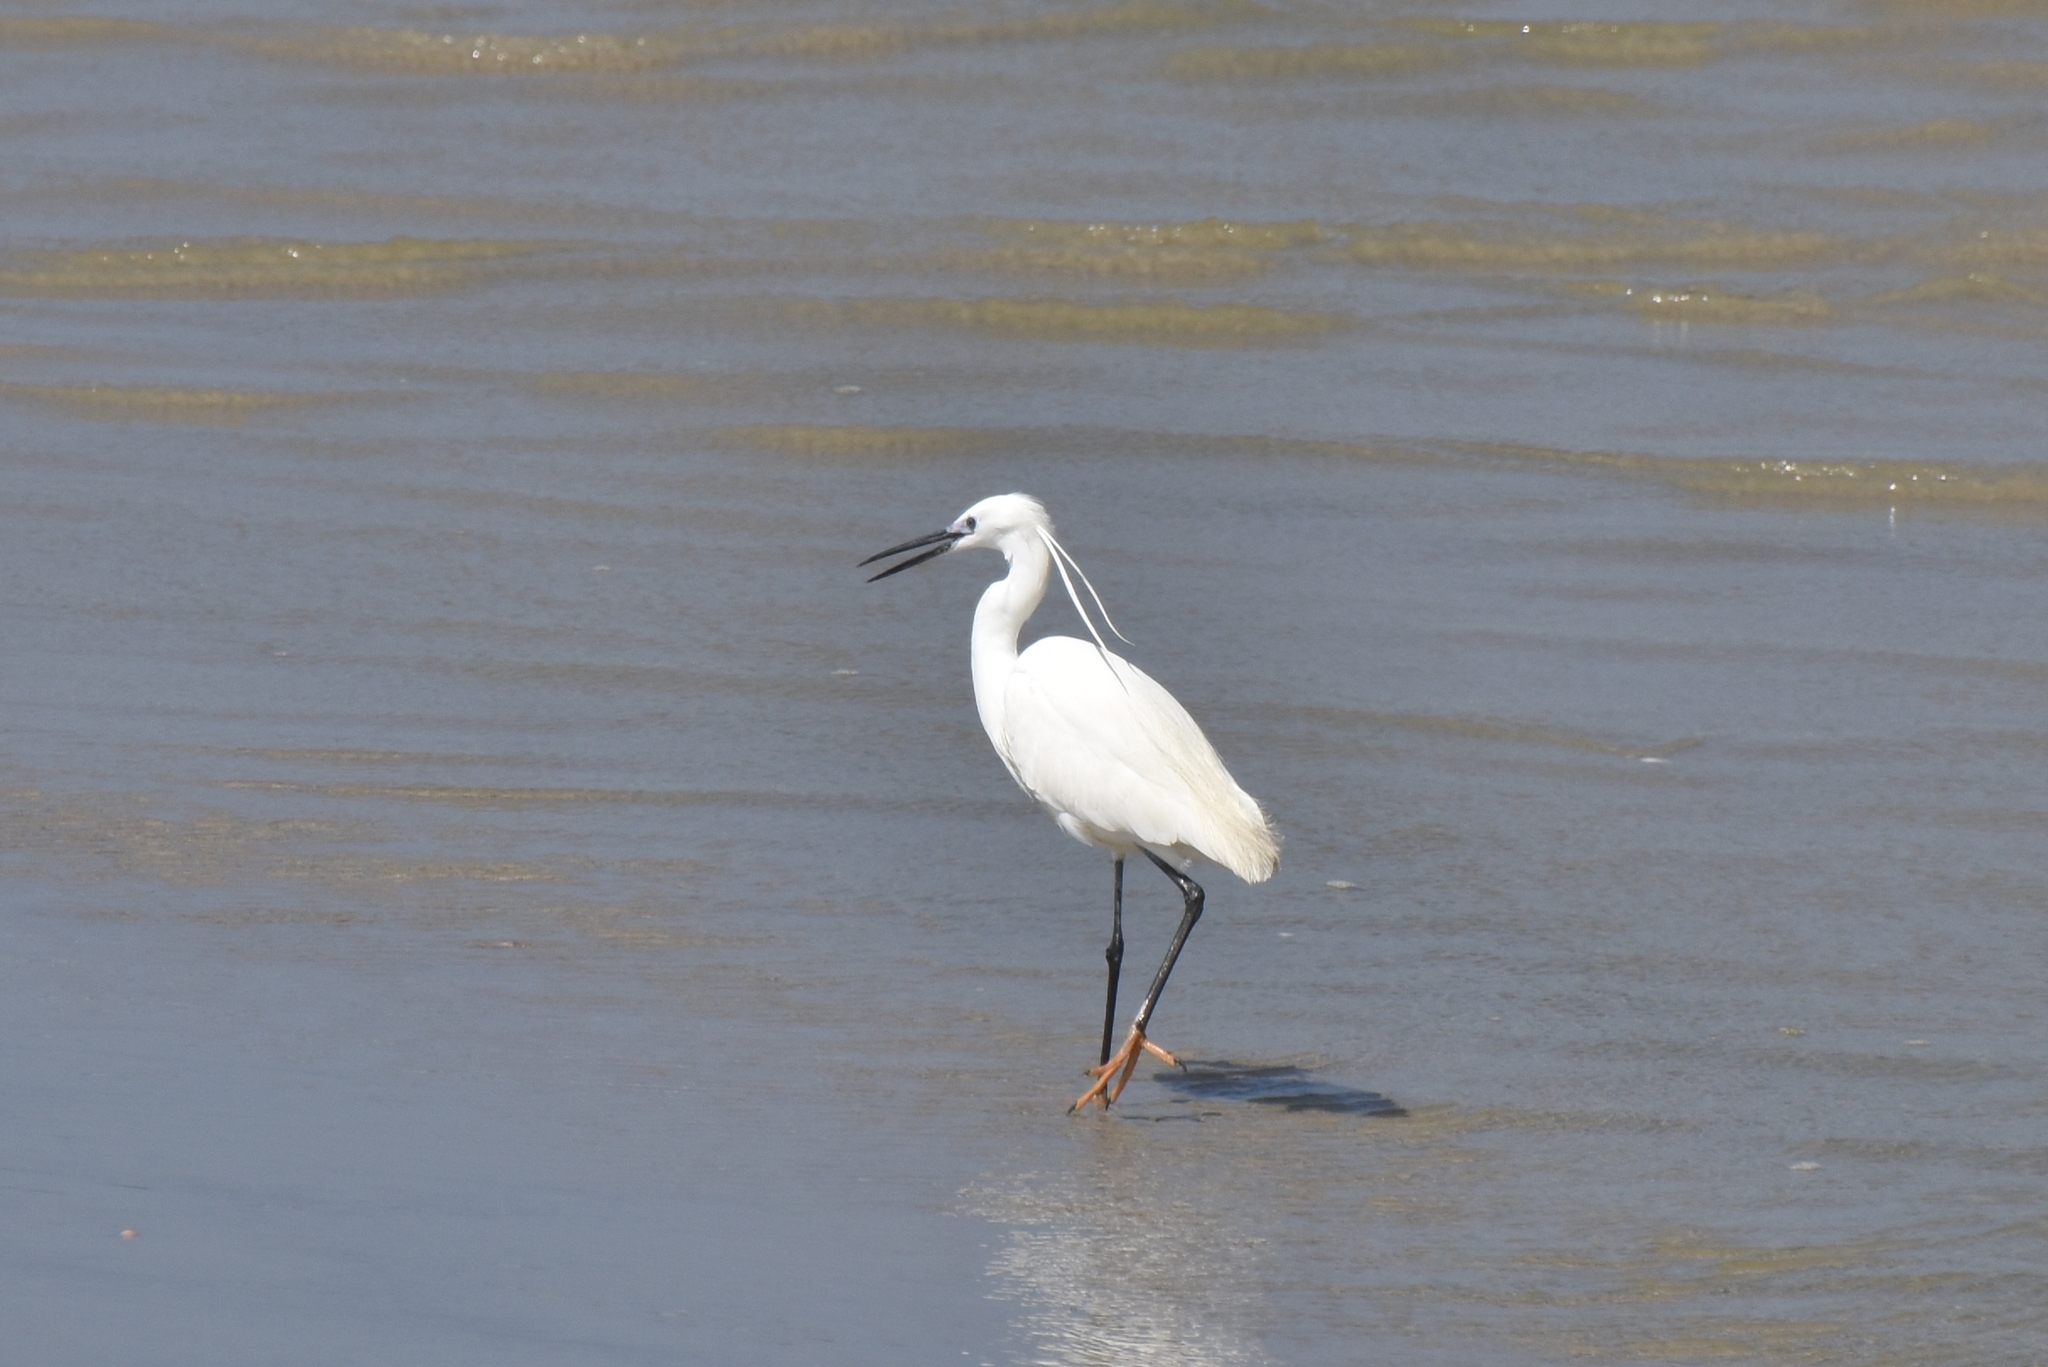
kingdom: Animalia
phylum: Chordata
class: Aves
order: Pelecaniformes
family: Ardeidae
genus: Egretta
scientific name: Egretta garzetta
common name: Little egret
